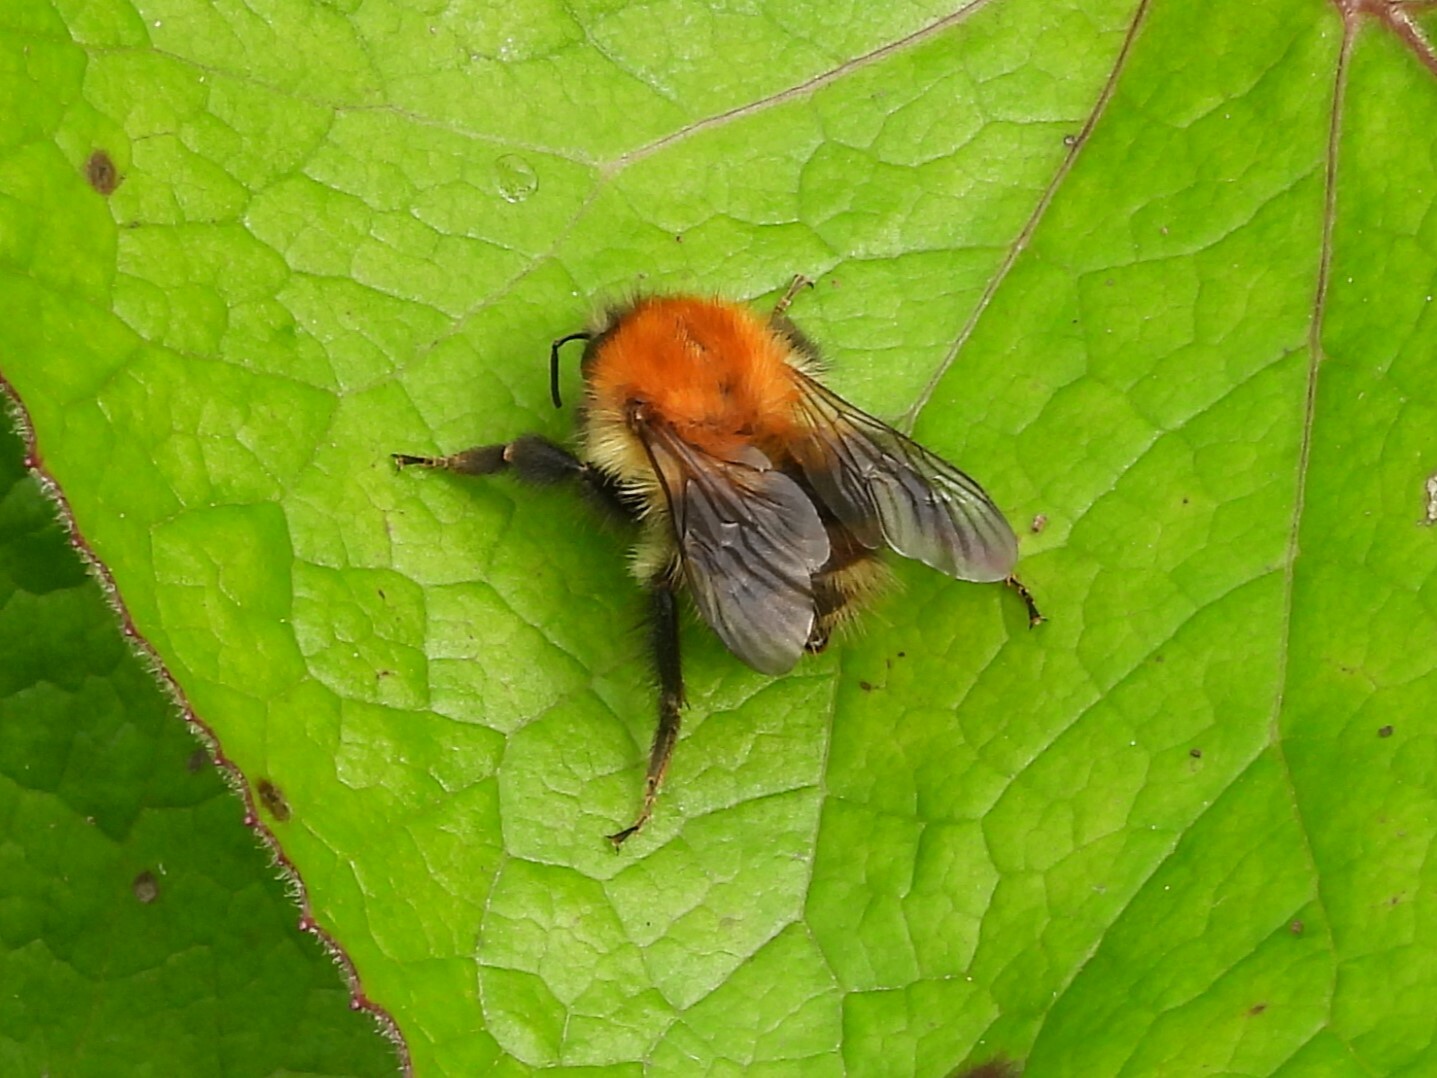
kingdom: Animalia
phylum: Arthropoda
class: Insecta
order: Hymenoptera
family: Apidae
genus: Bombus
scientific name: Bombus pascuorum
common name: Common carder bee
